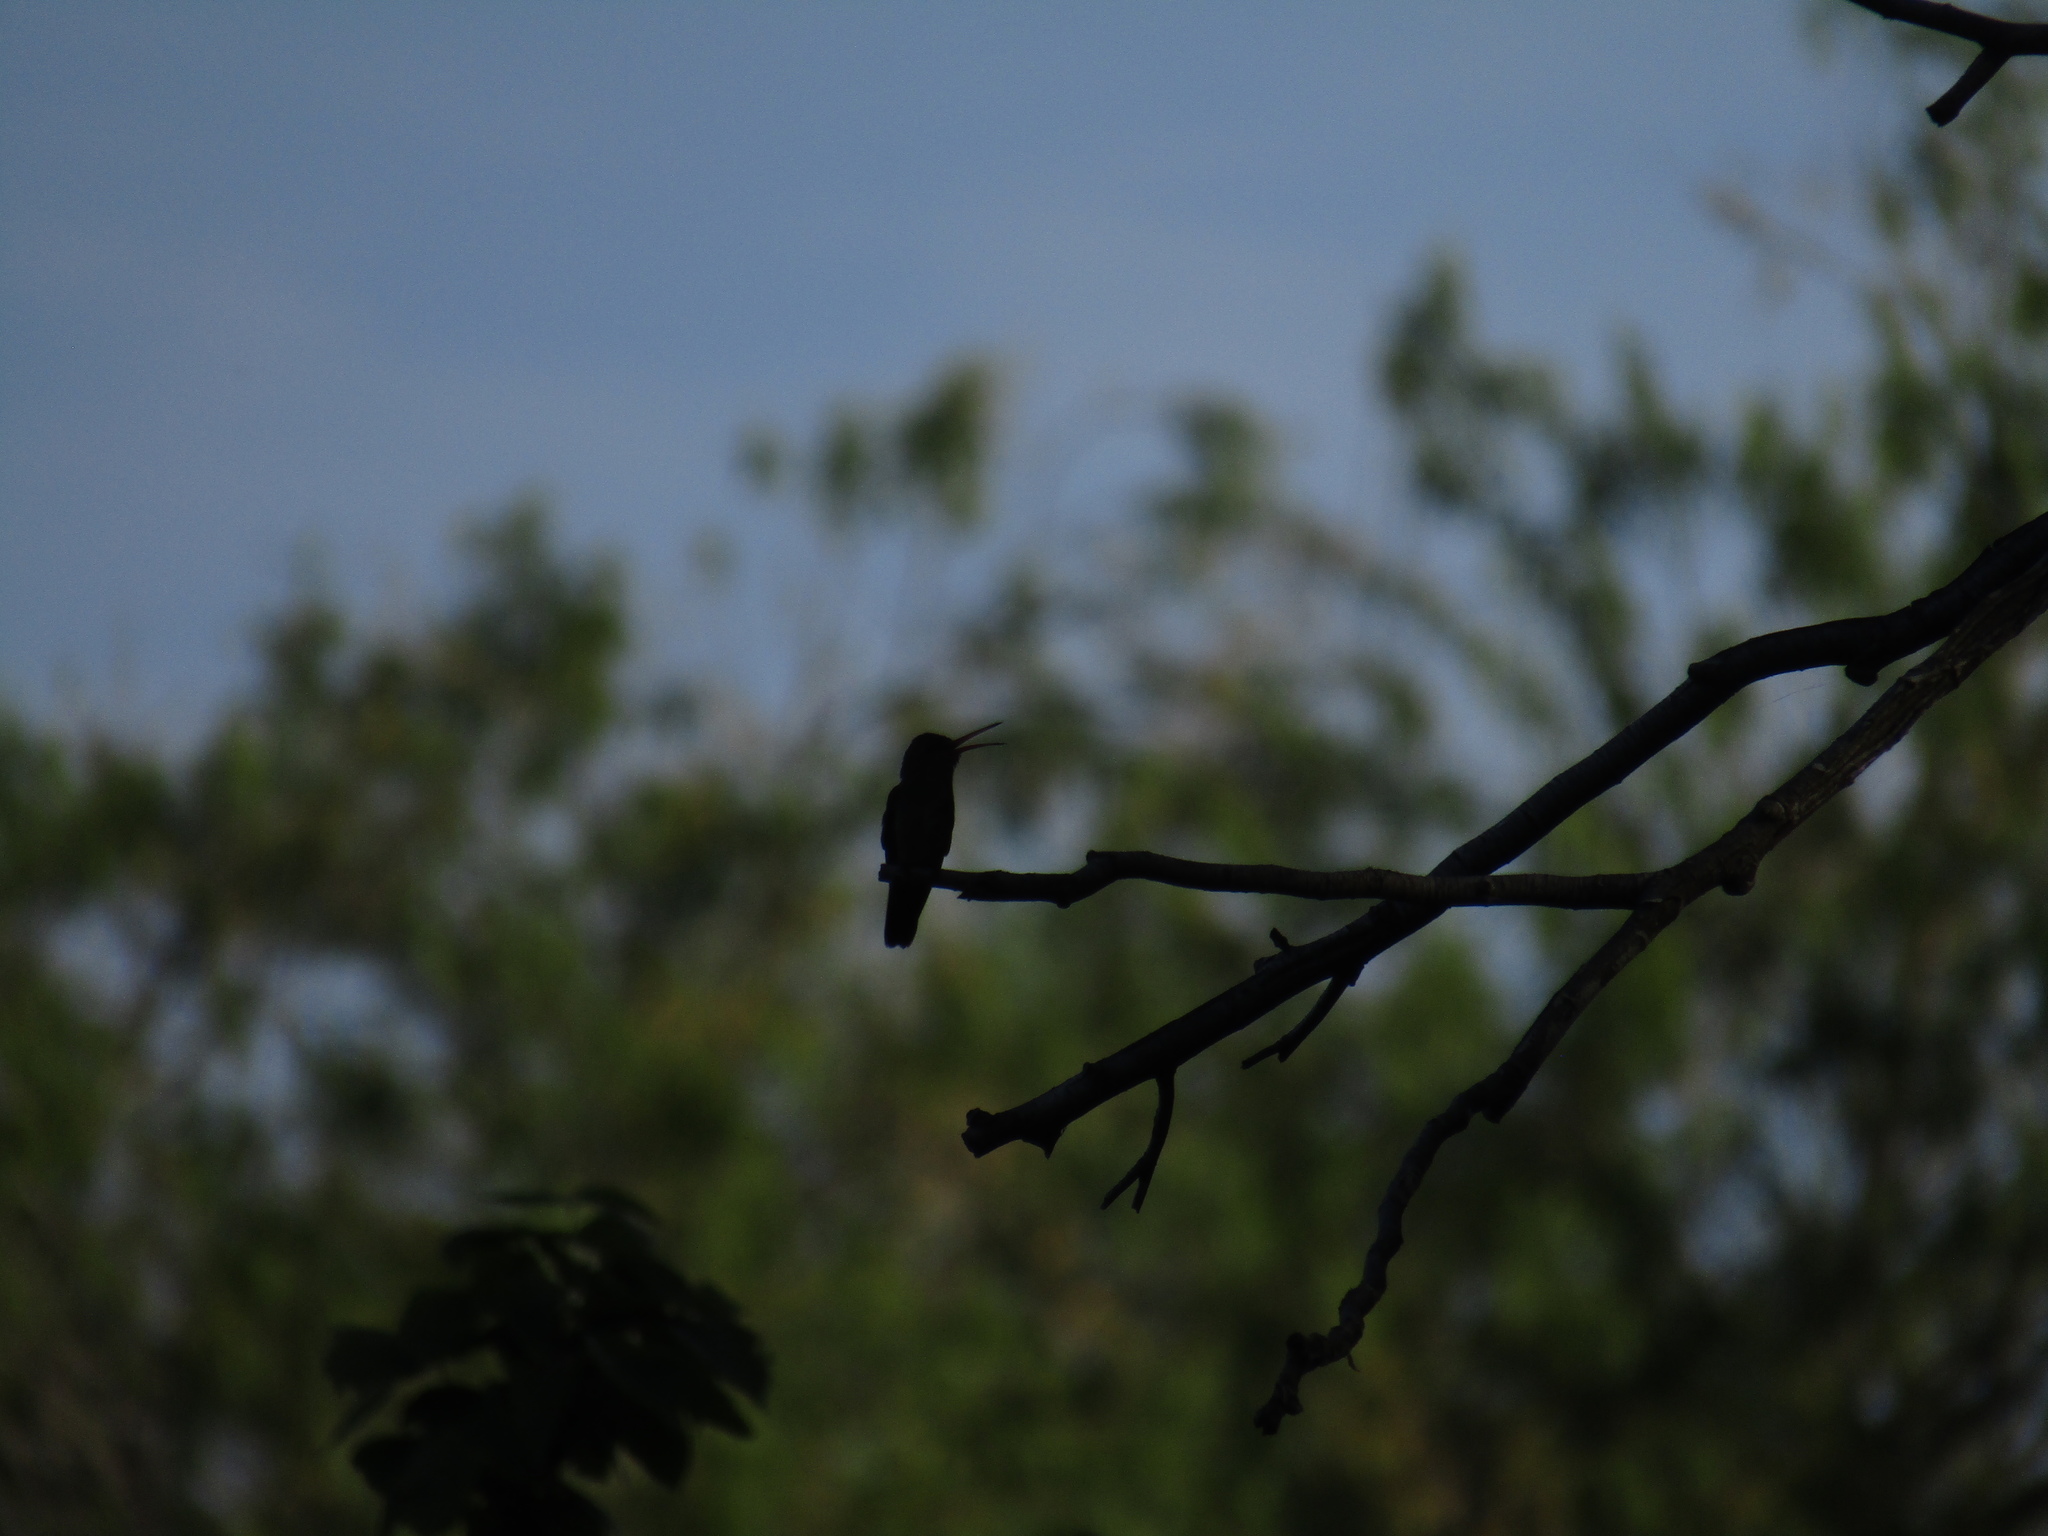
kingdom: Animalia
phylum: Chordata
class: Aves
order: Apodiformes
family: Trochilidae
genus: Hylocharis
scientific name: Hylocharis chrysura
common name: Gilded sapphire
